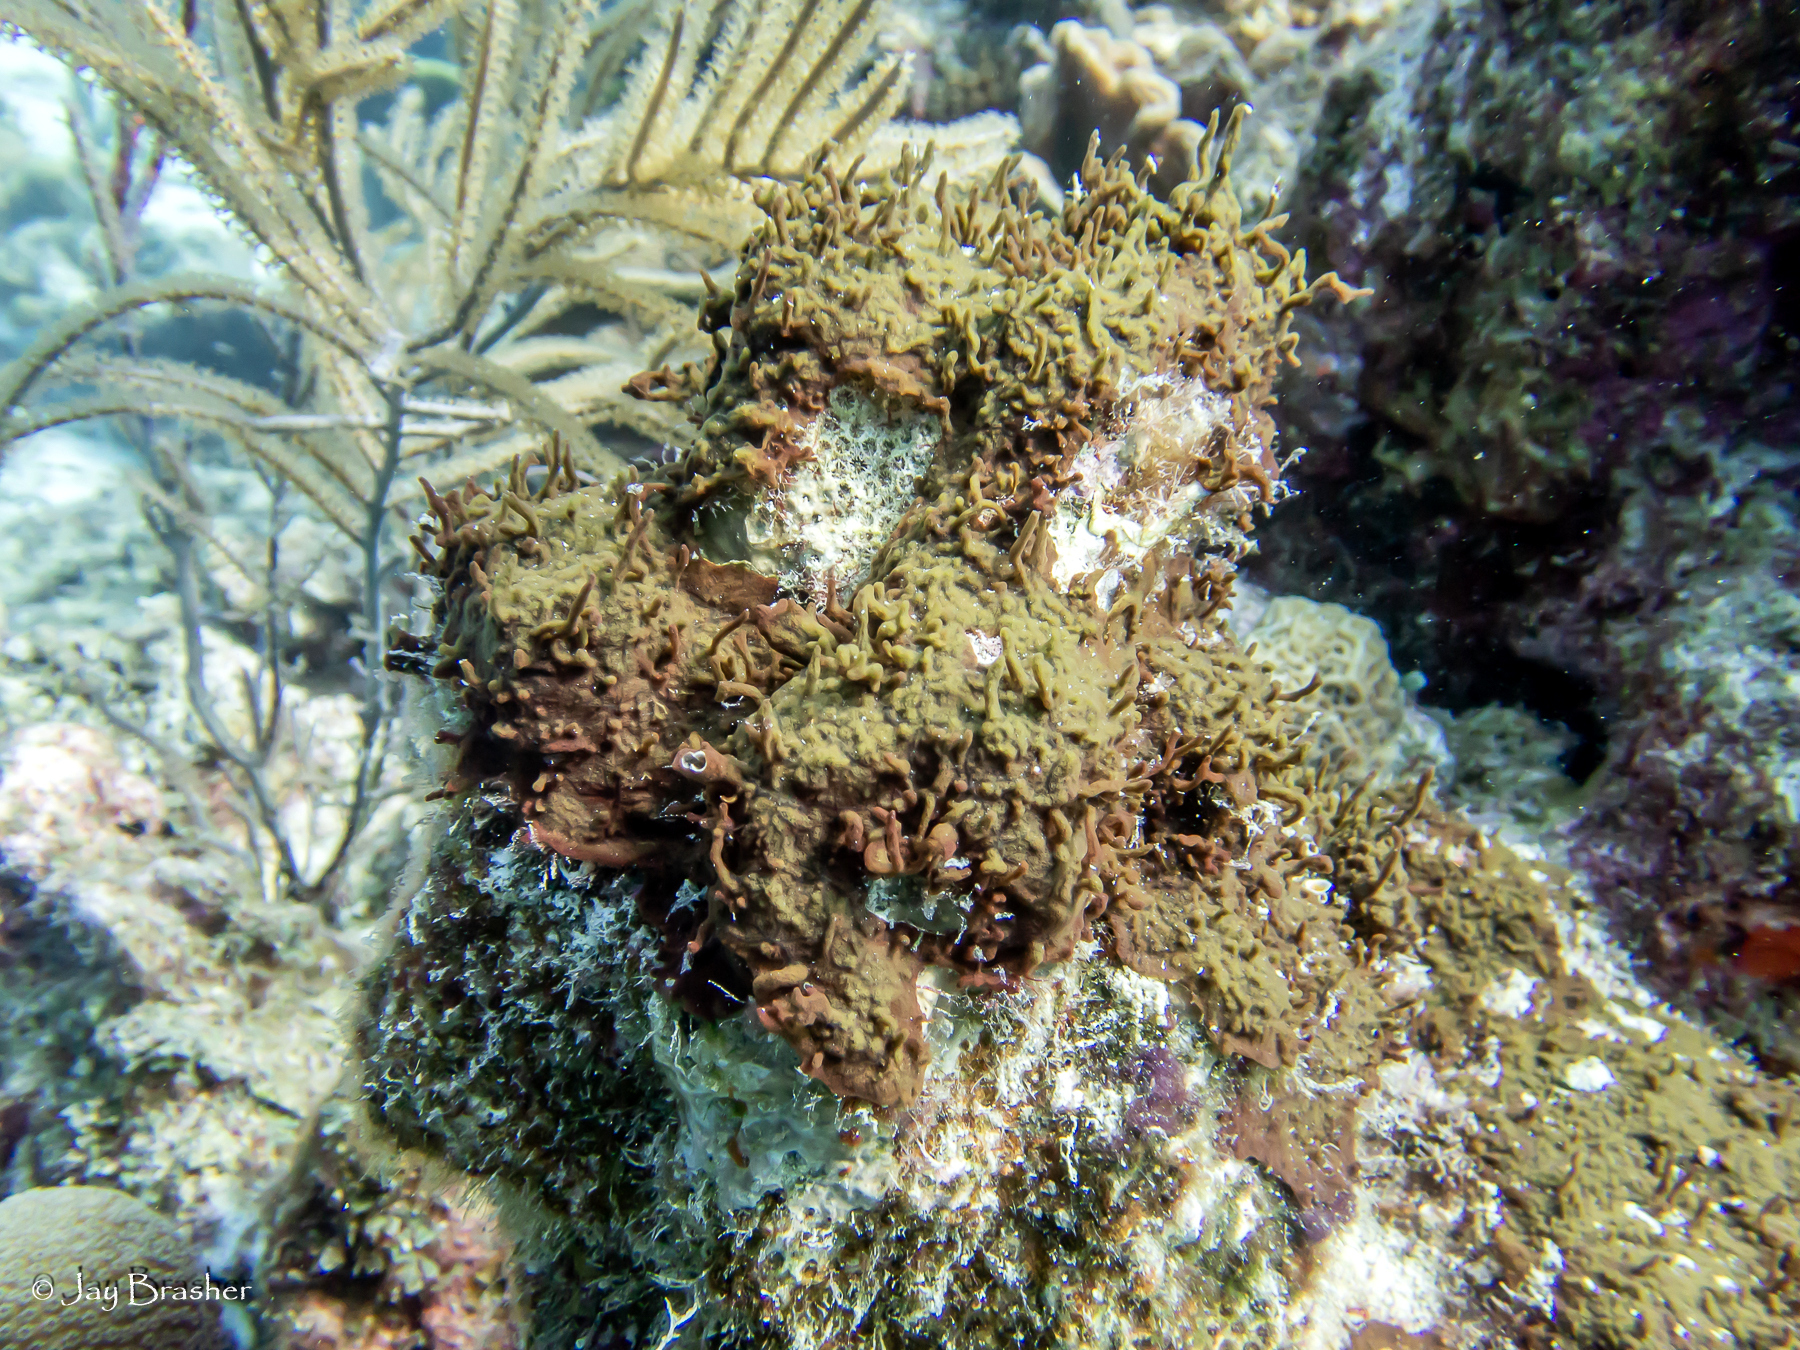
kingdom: Animalia
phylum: Porifera
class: Demospongiae
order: Bubarida
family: Dictyonellidae
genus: Dictyonella
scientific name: Dictyonella funicularis
